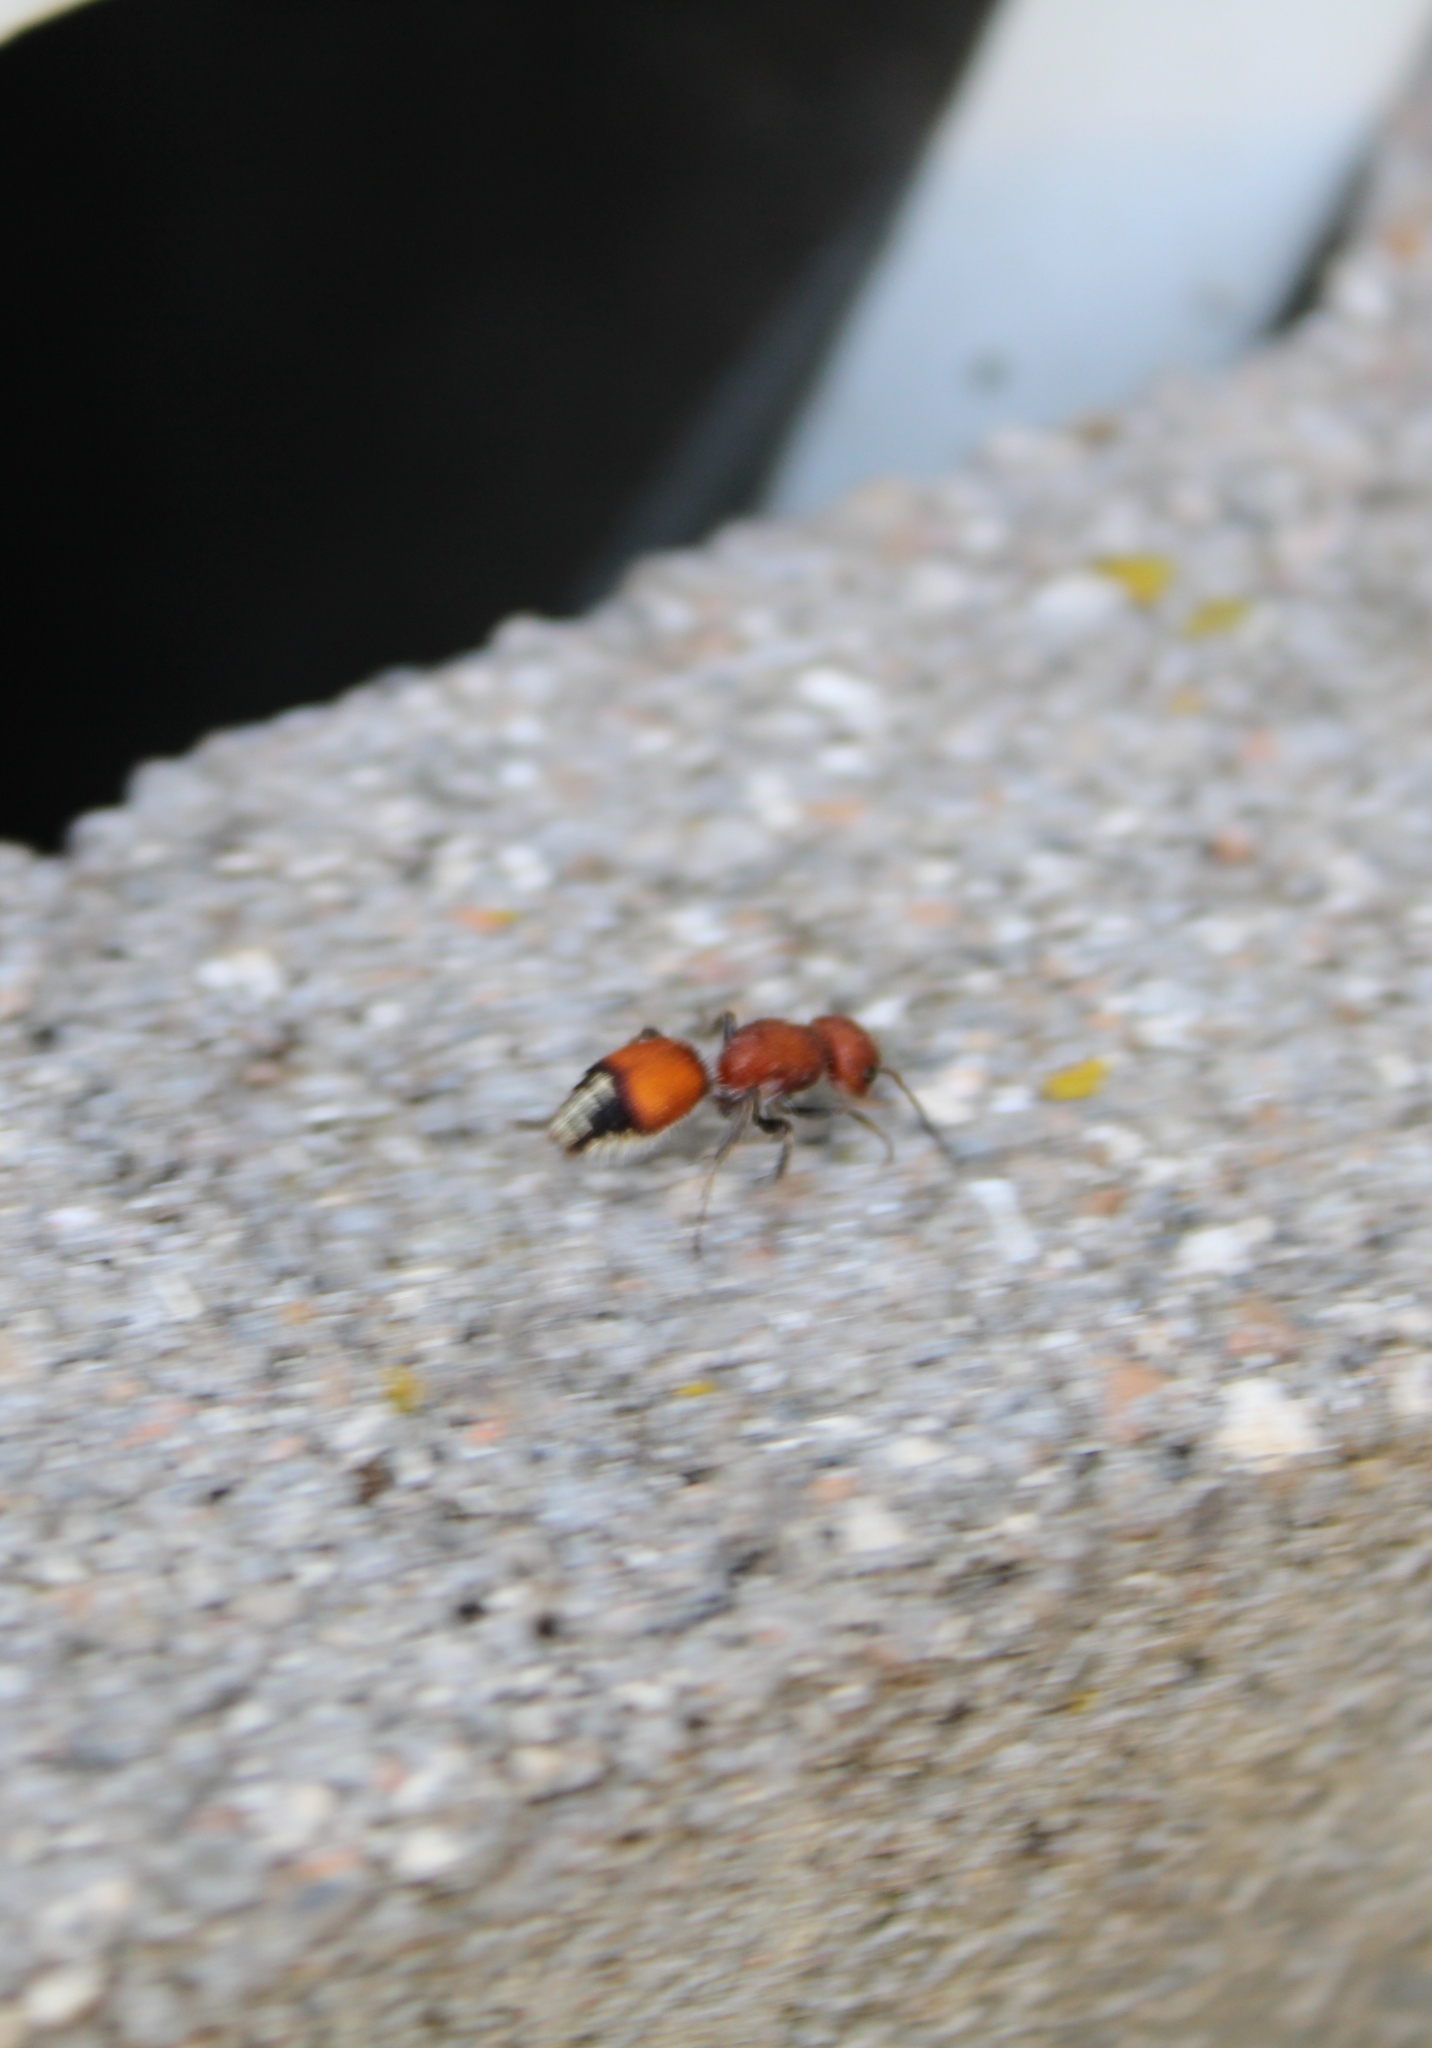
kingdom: Animalia
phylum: Arthropoda
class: Insecta
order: Hymenoptera
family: Mutillidae
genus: Dasymutilla
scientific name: Dasymutilla
